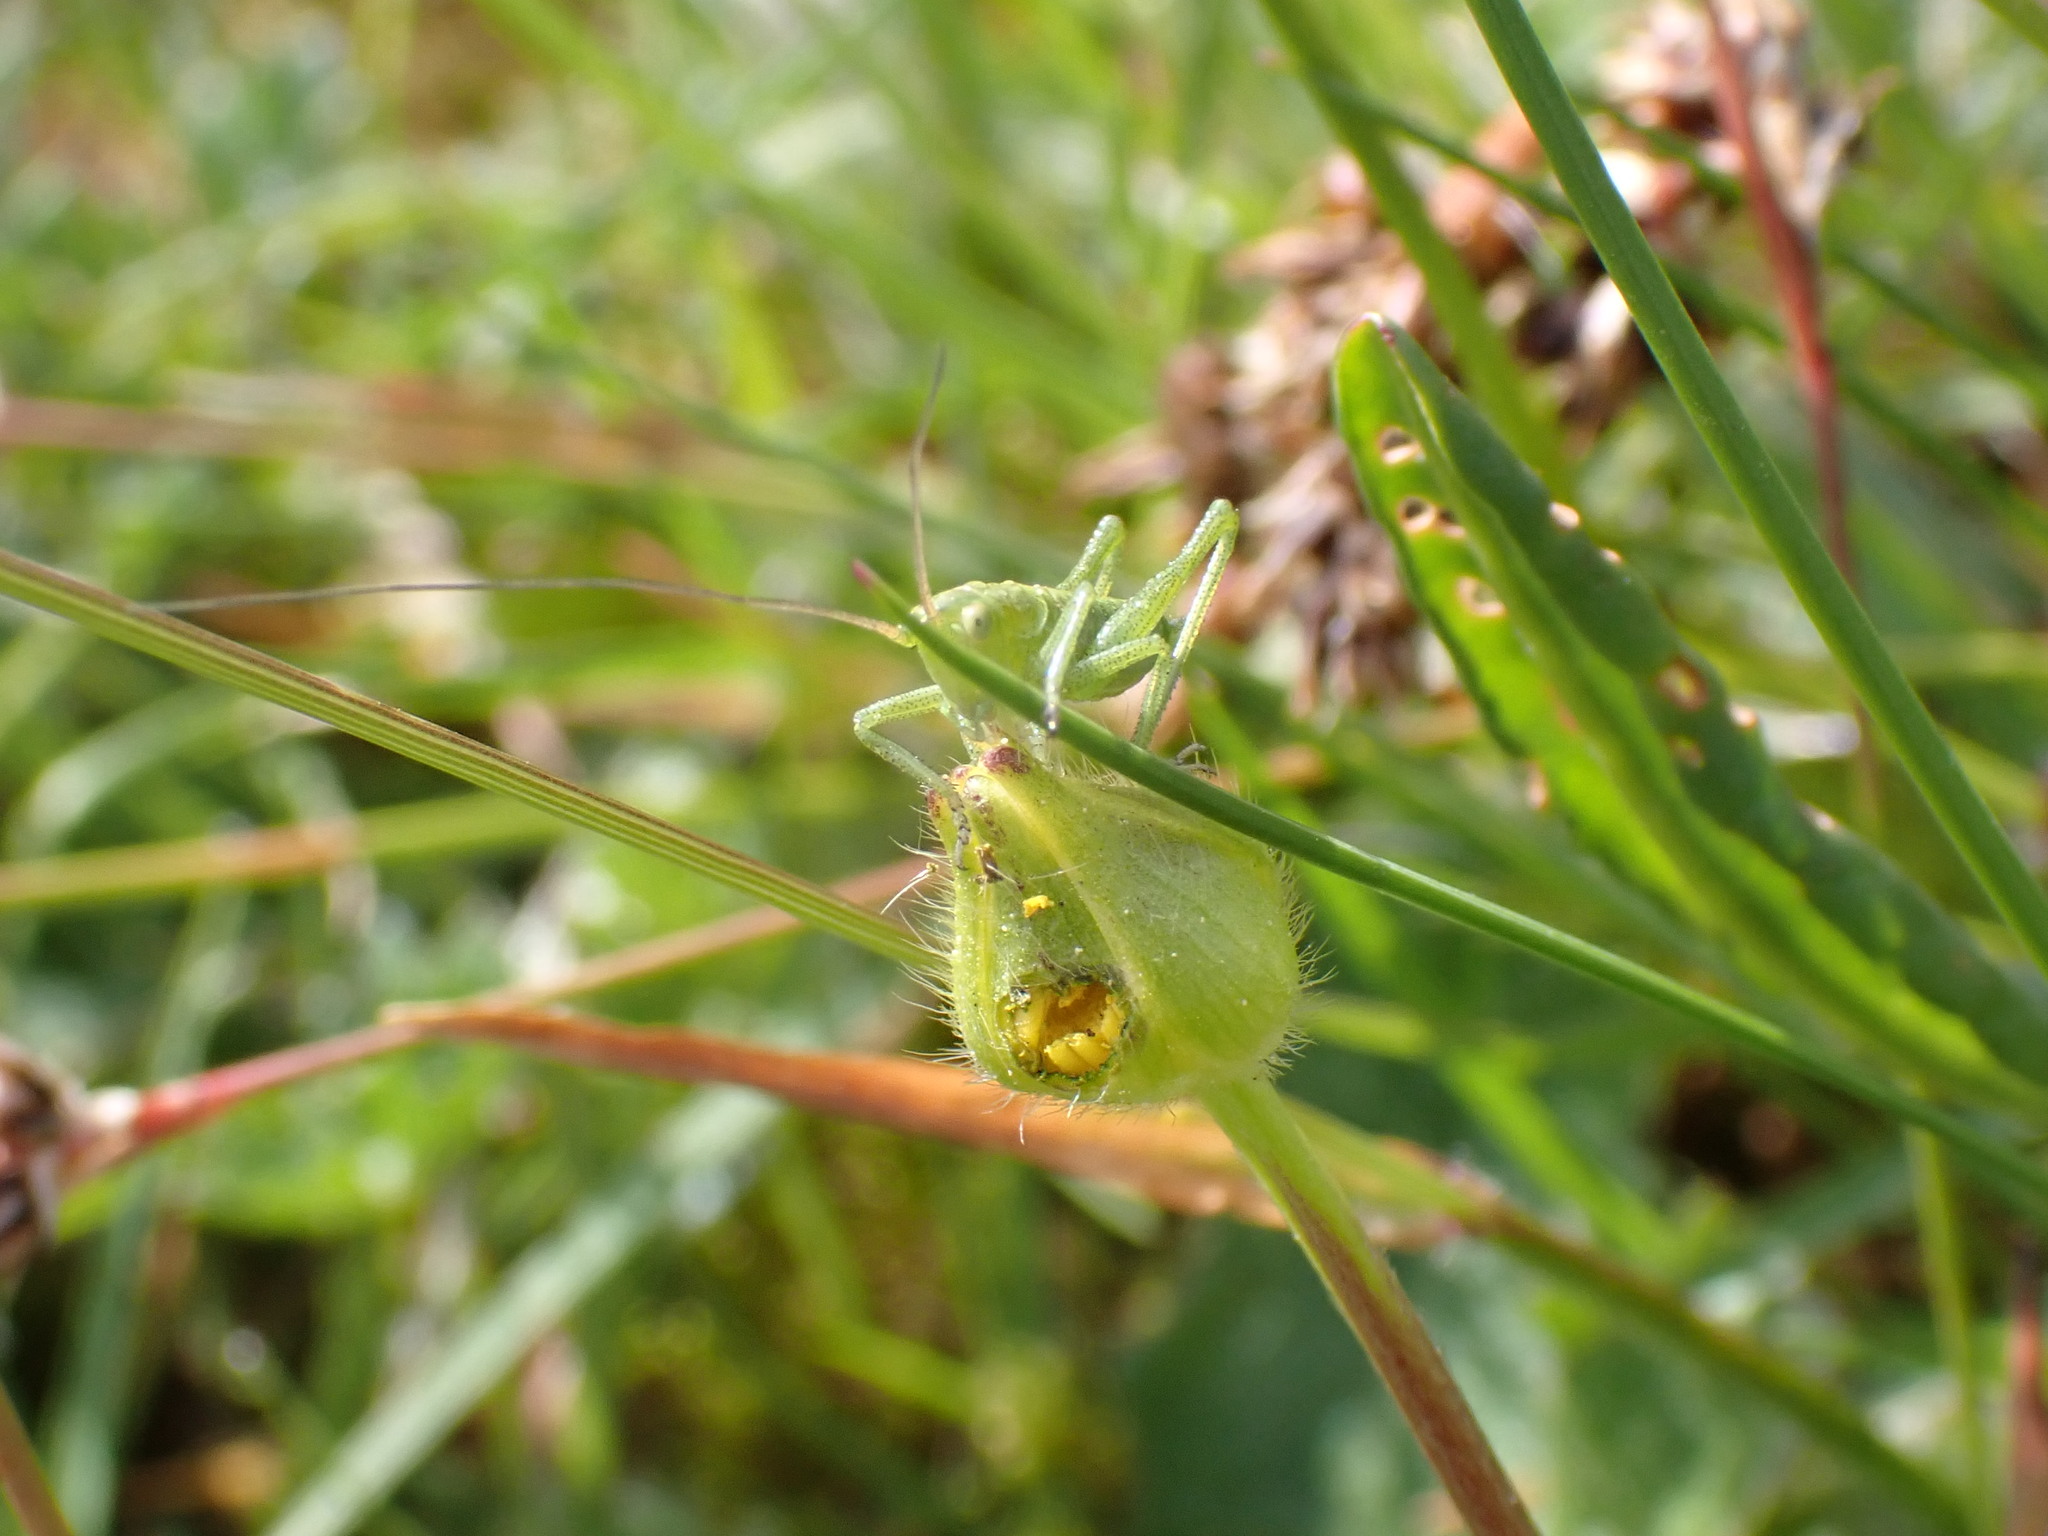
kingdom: Animalia
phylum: Arthropoda
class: Insecta
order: Orthoptera
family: Tettigoniidae
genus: Tettigonia
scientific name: Tettigonia viridissima
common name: Great green bush-cricket
